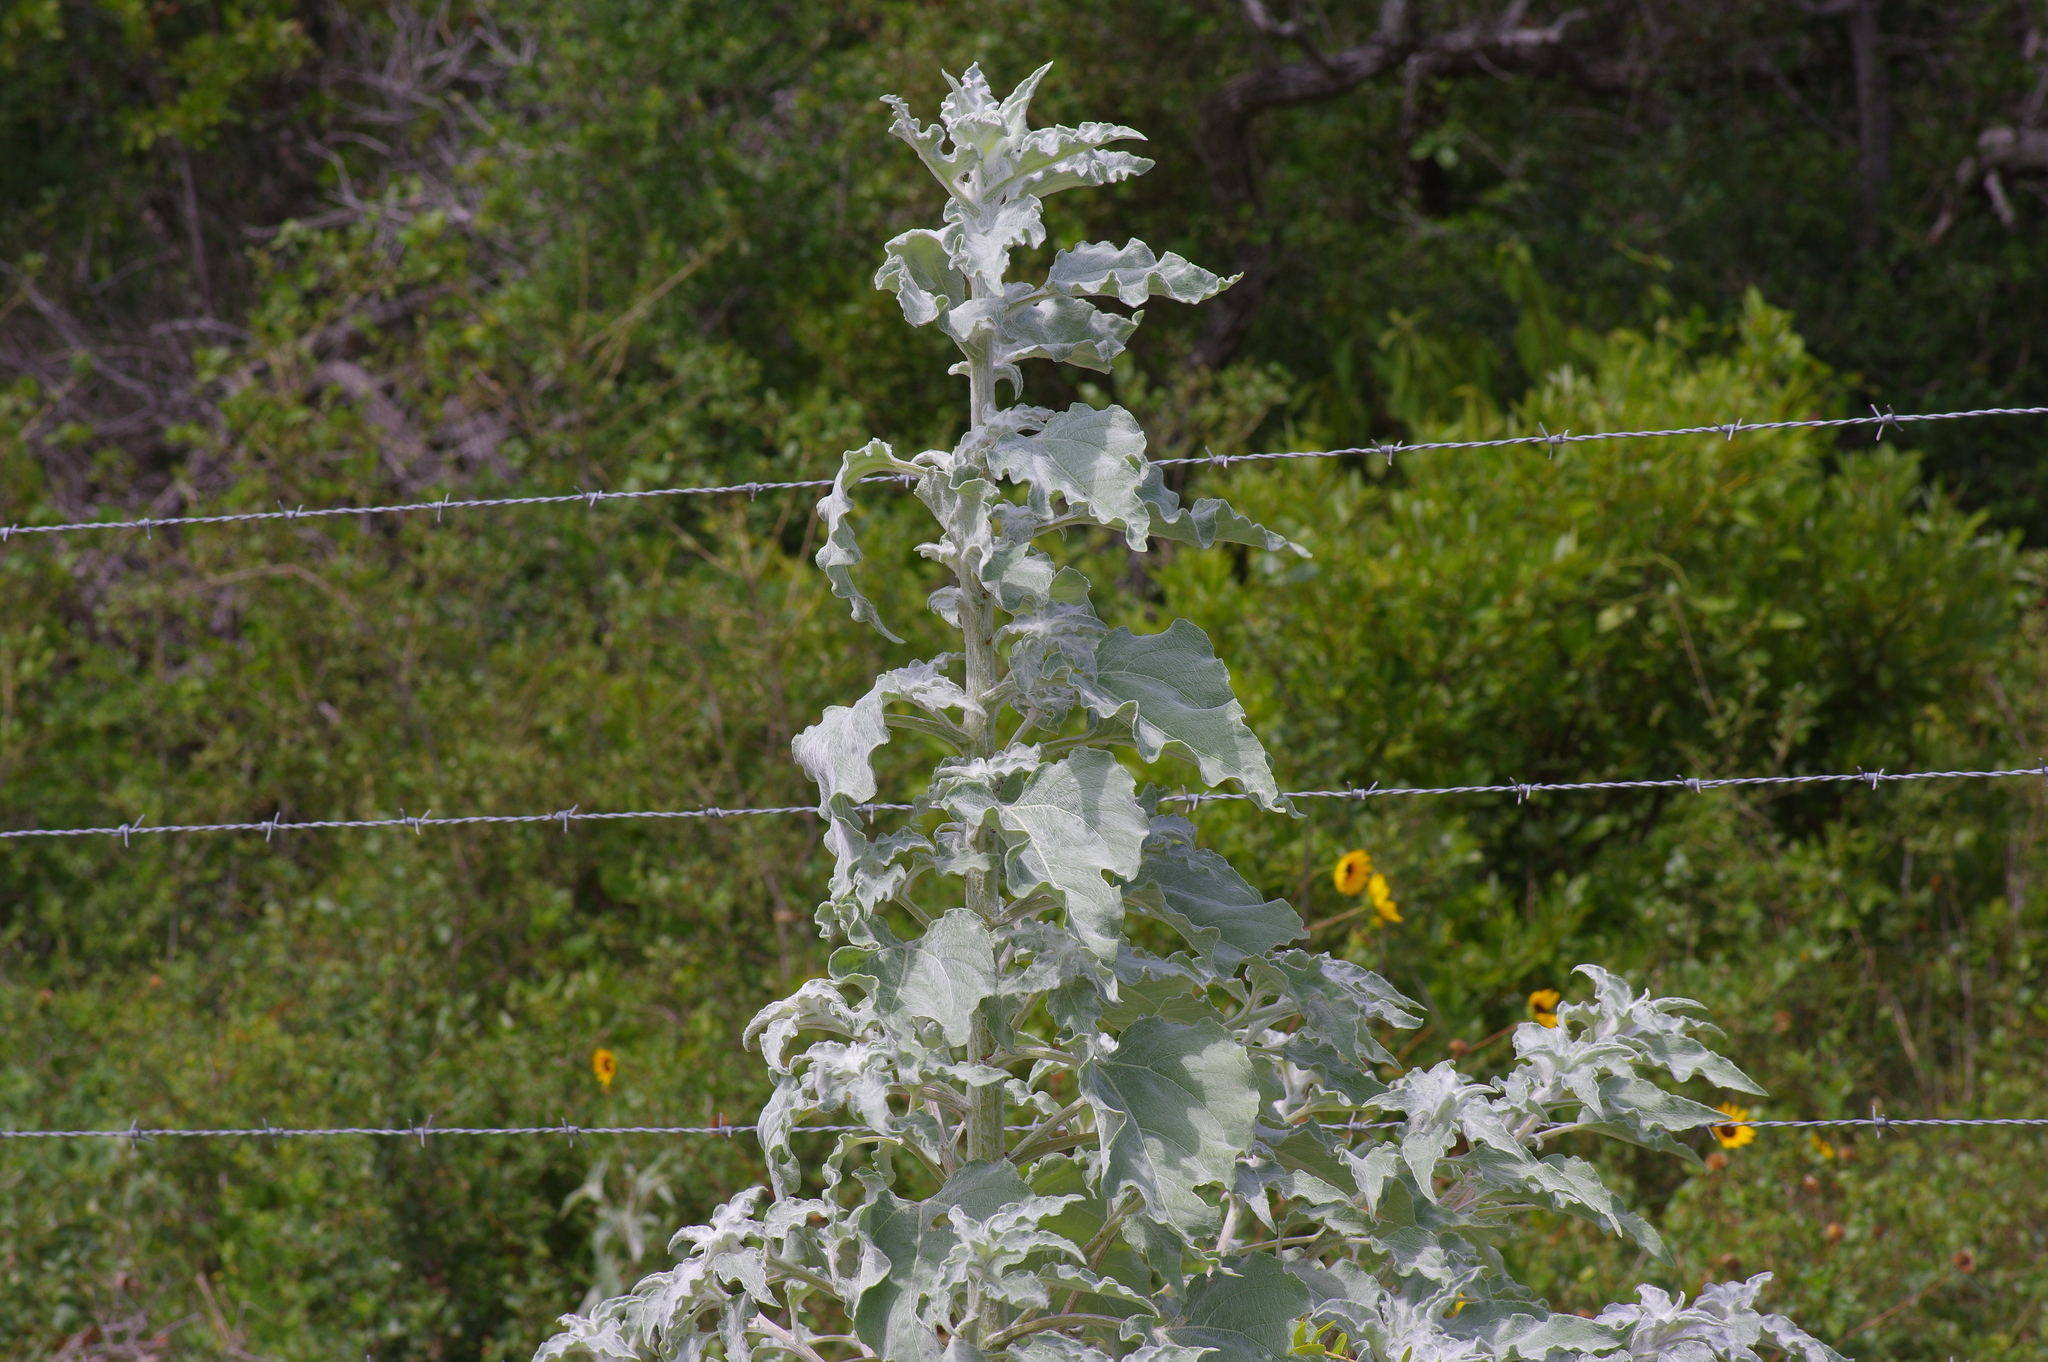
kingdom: Plantae
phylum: Tracheophyta
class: Magnoliopsida
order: Asterales
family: Asteraceae
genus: Helianthus
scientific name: Helianthus argophyllus
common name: Silverleaf sunflower
